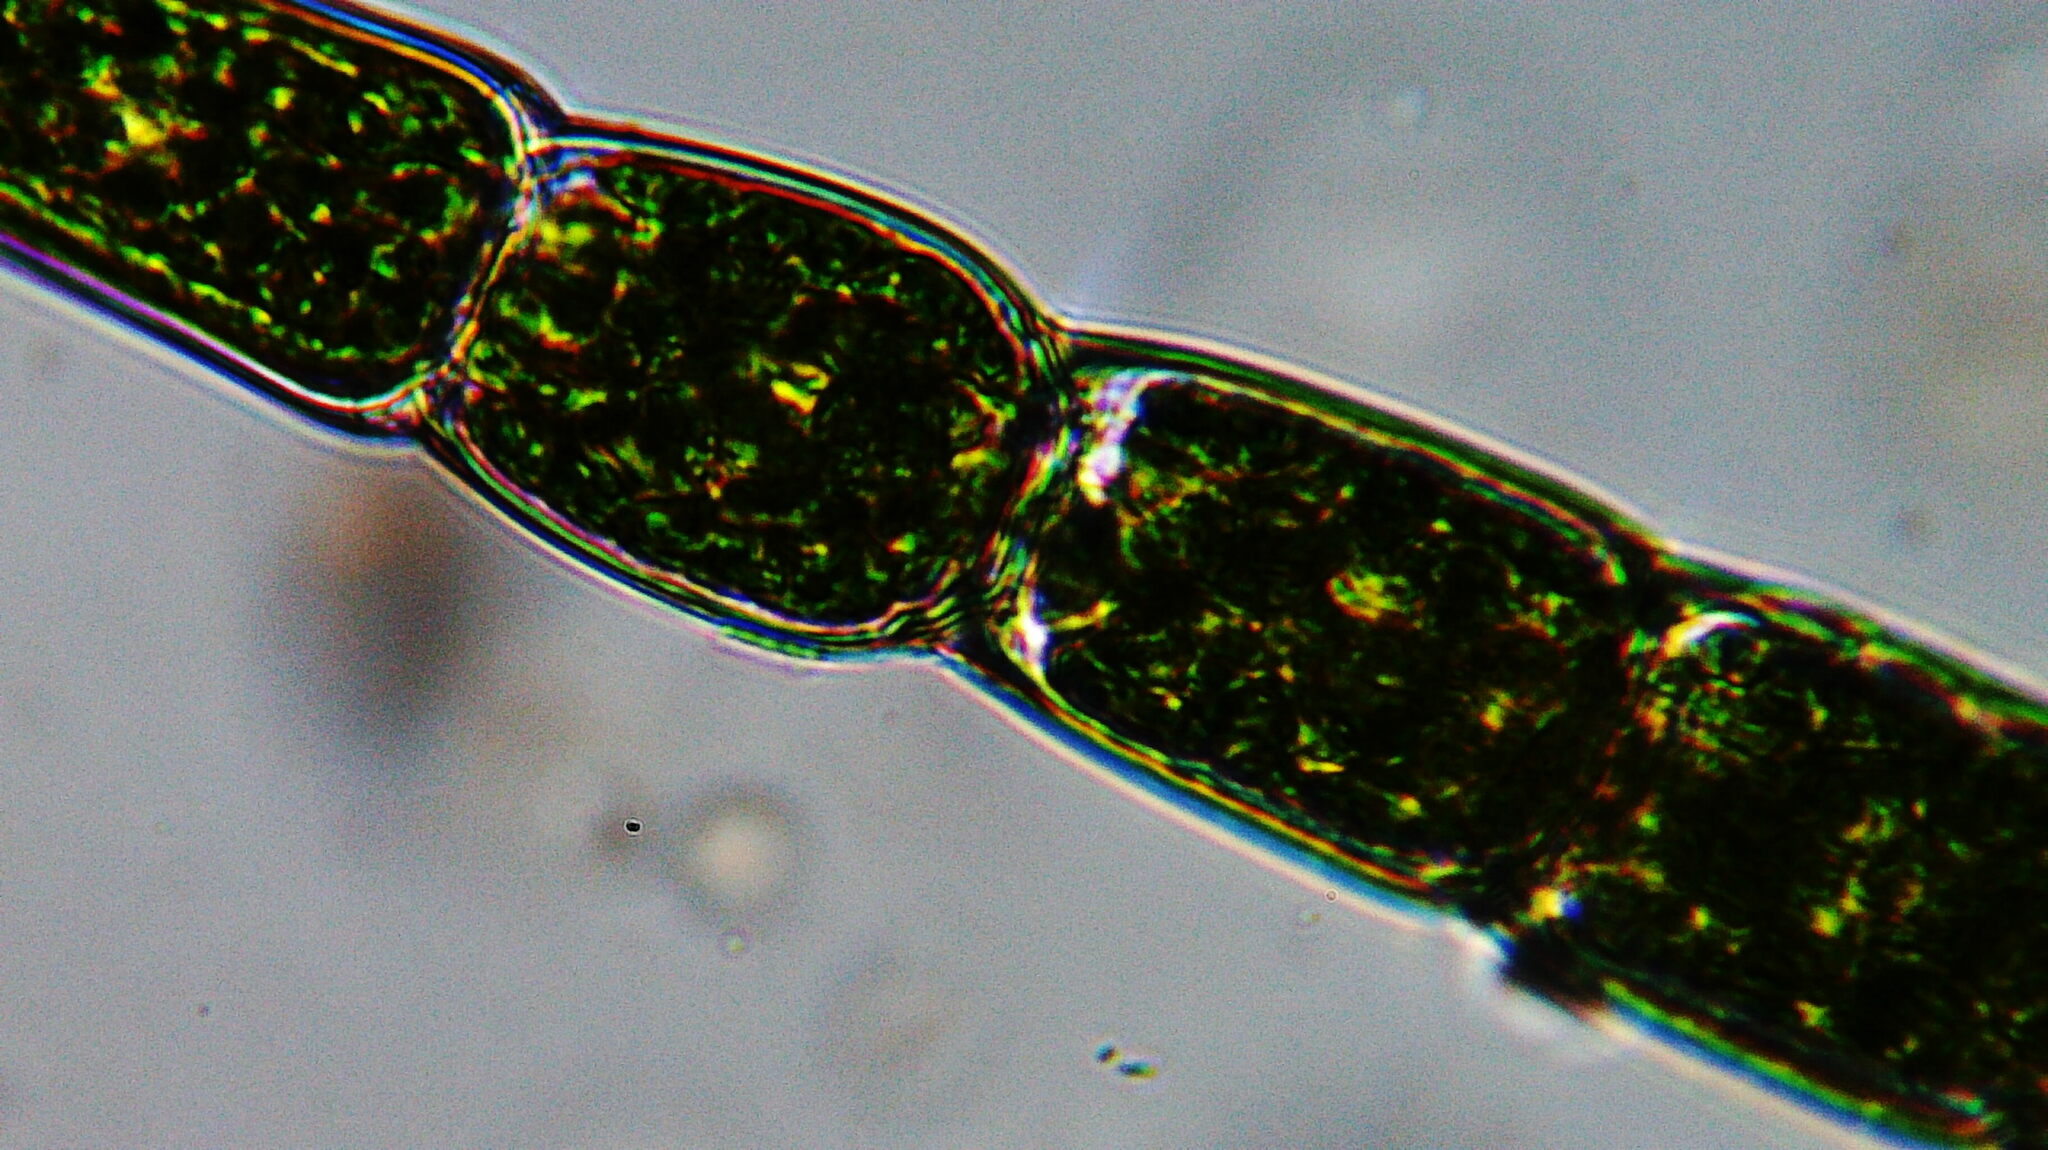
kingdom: Plantae
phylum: Chlorophyta
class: Chlorophyceae
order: Oedogoniales
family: Oedogoniaceae
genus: Oedogonium
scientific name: Oedogonium
